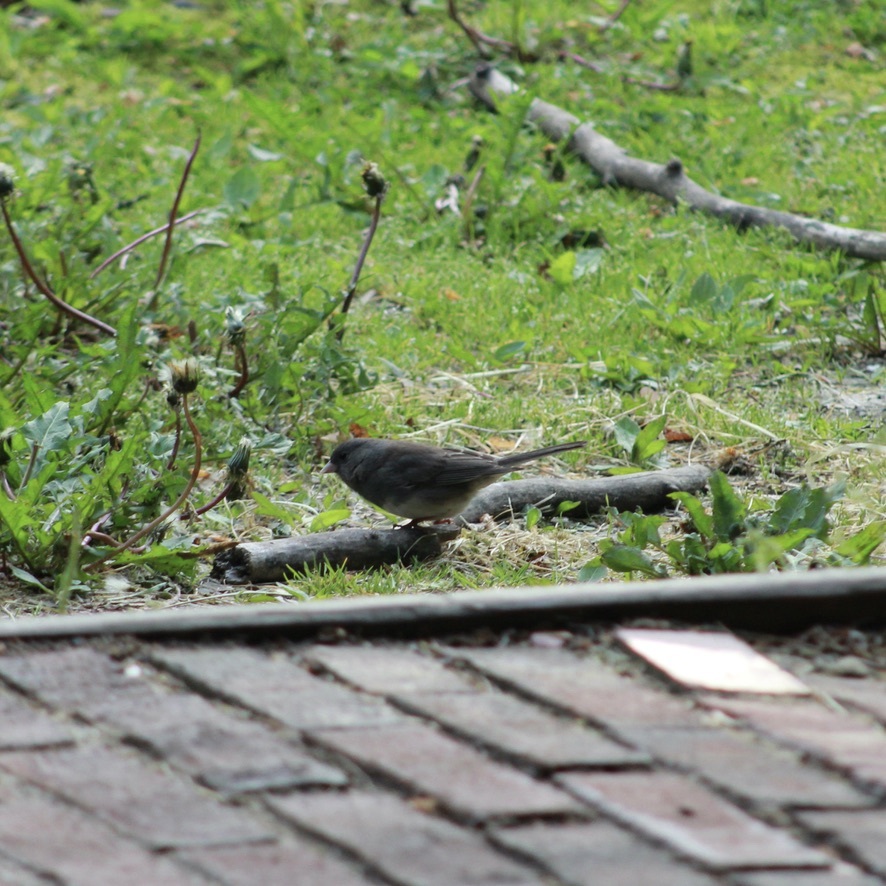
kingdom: Animalia
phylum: Chordata
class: Aves
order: Passeriformes
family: Passerellidae
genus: Junco
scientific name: Junco hyemalis
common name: Dark-eyed junco
